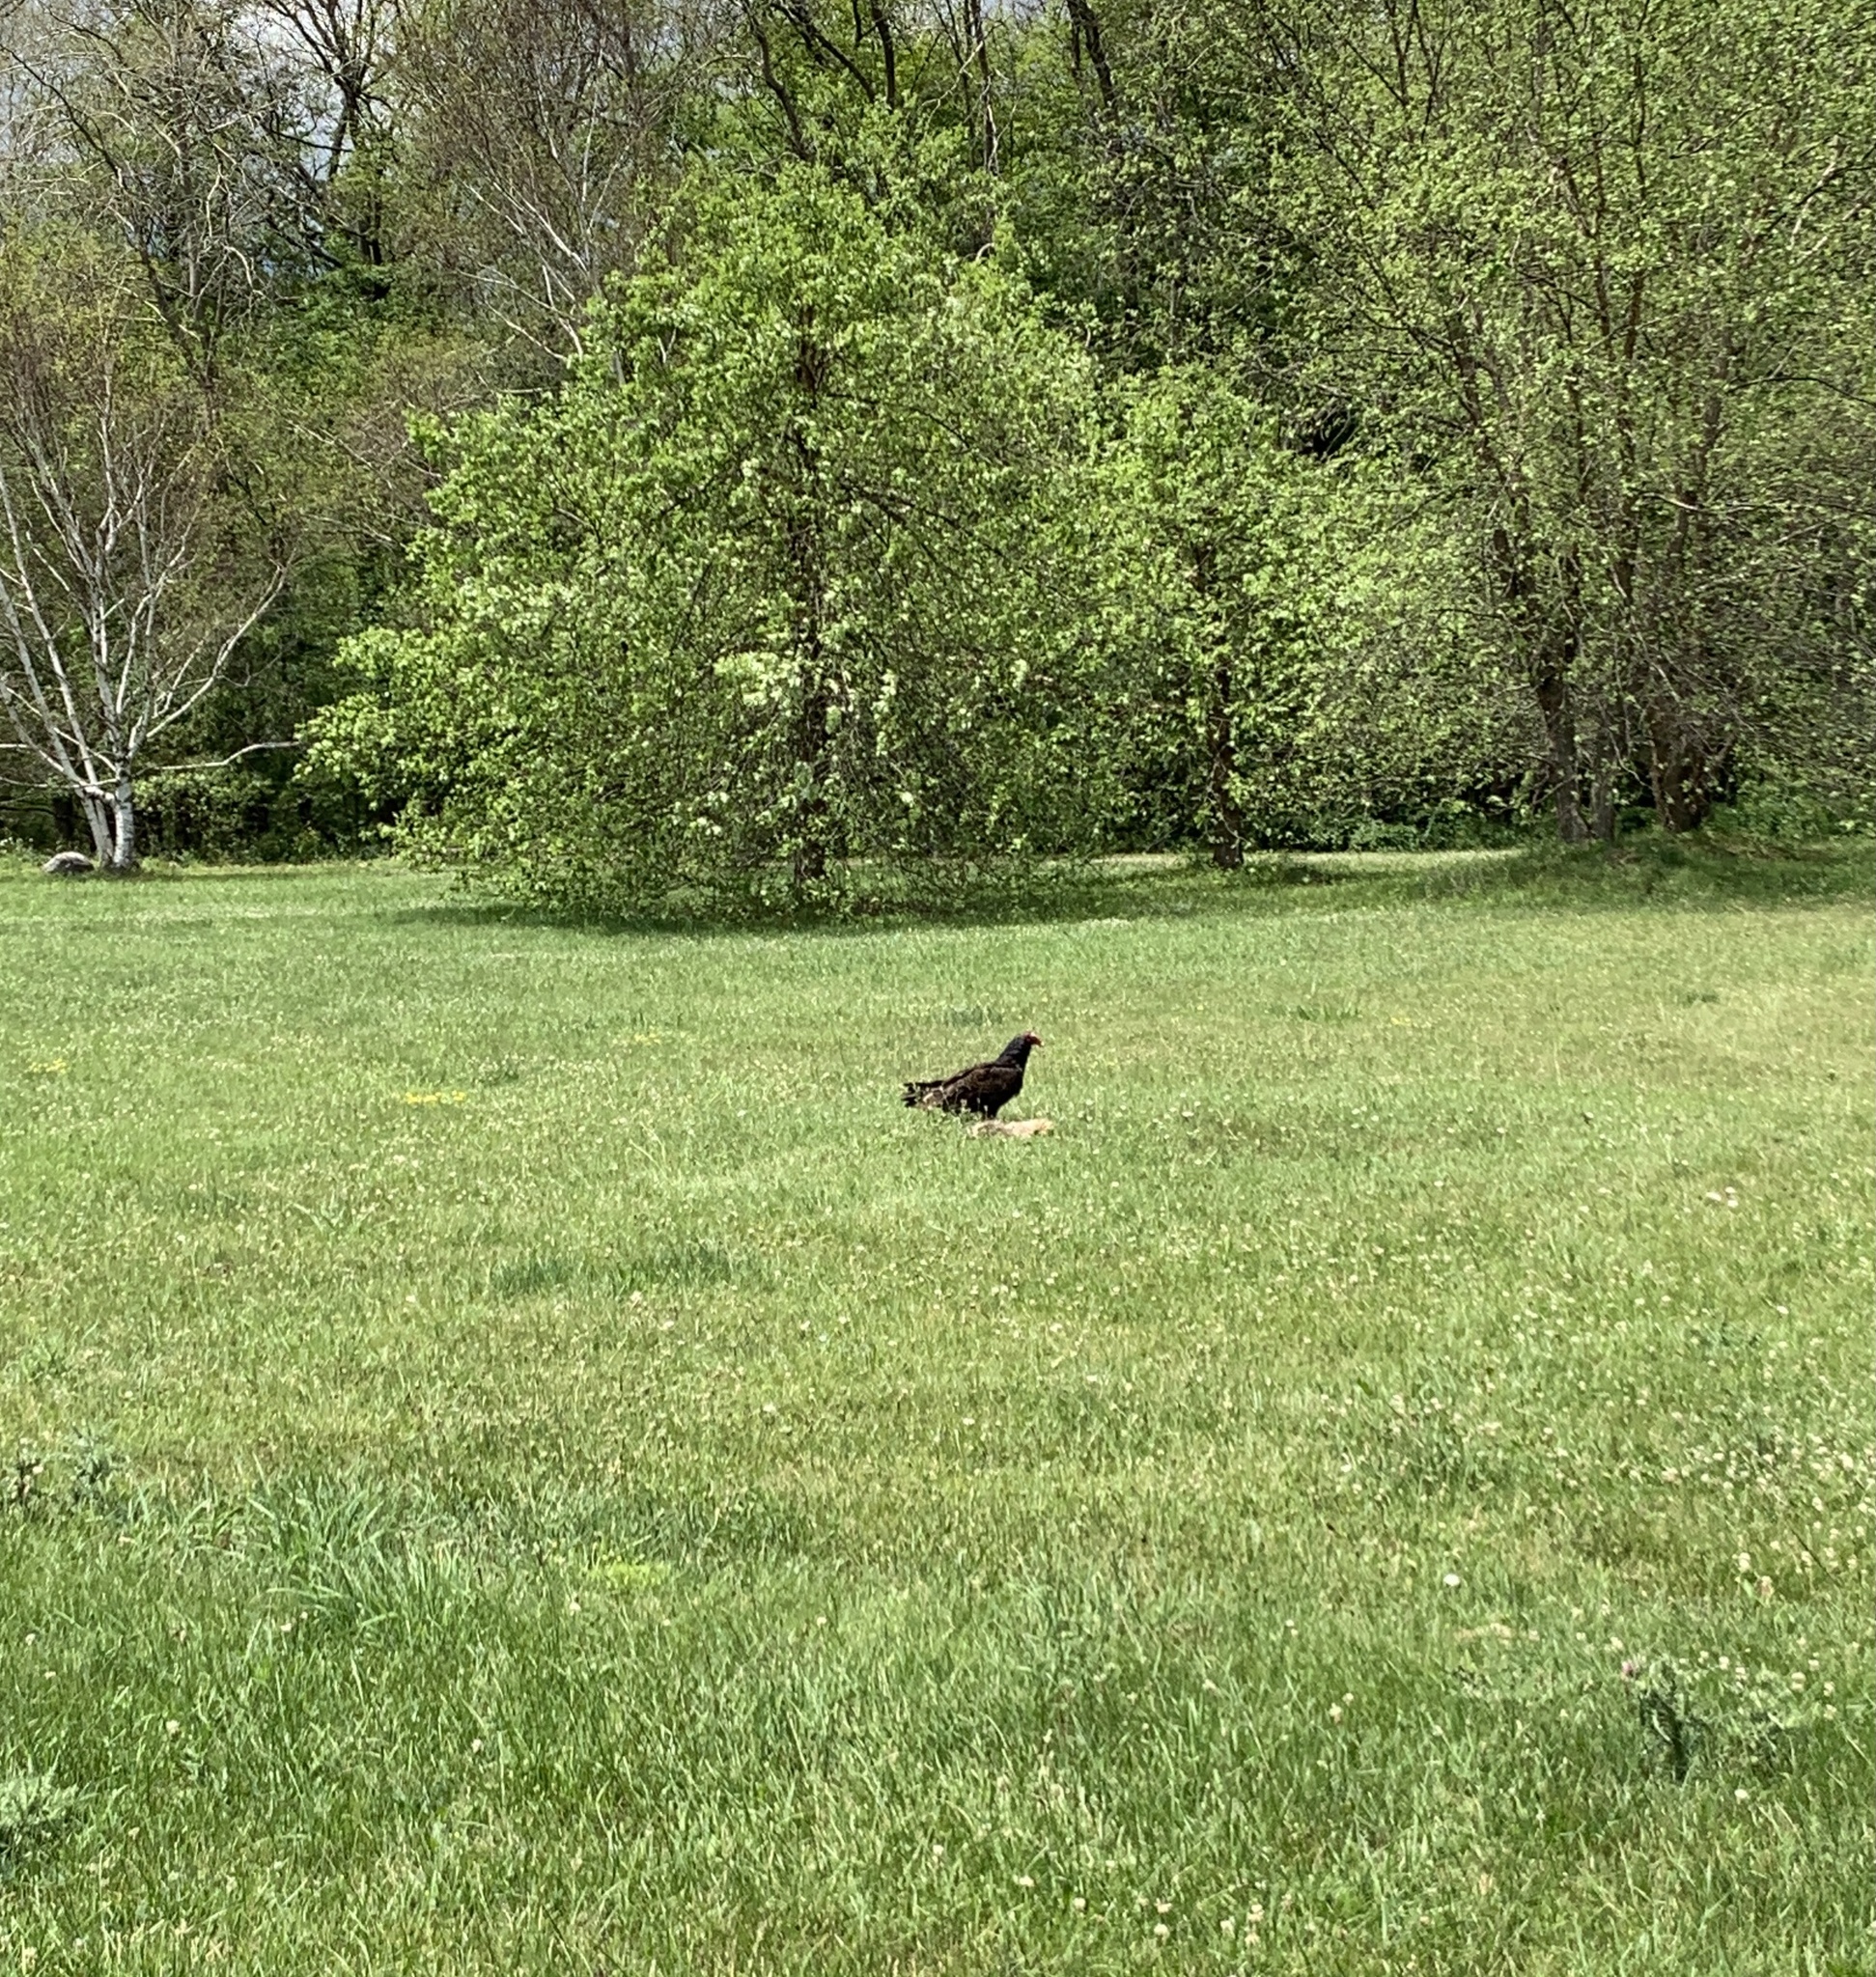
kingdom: Animalia
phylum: Chordata
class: Aves
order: Accipitriformes
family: Cathartidae
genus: Cathartes
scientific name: Cathartes aura
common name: Turkey vulture
